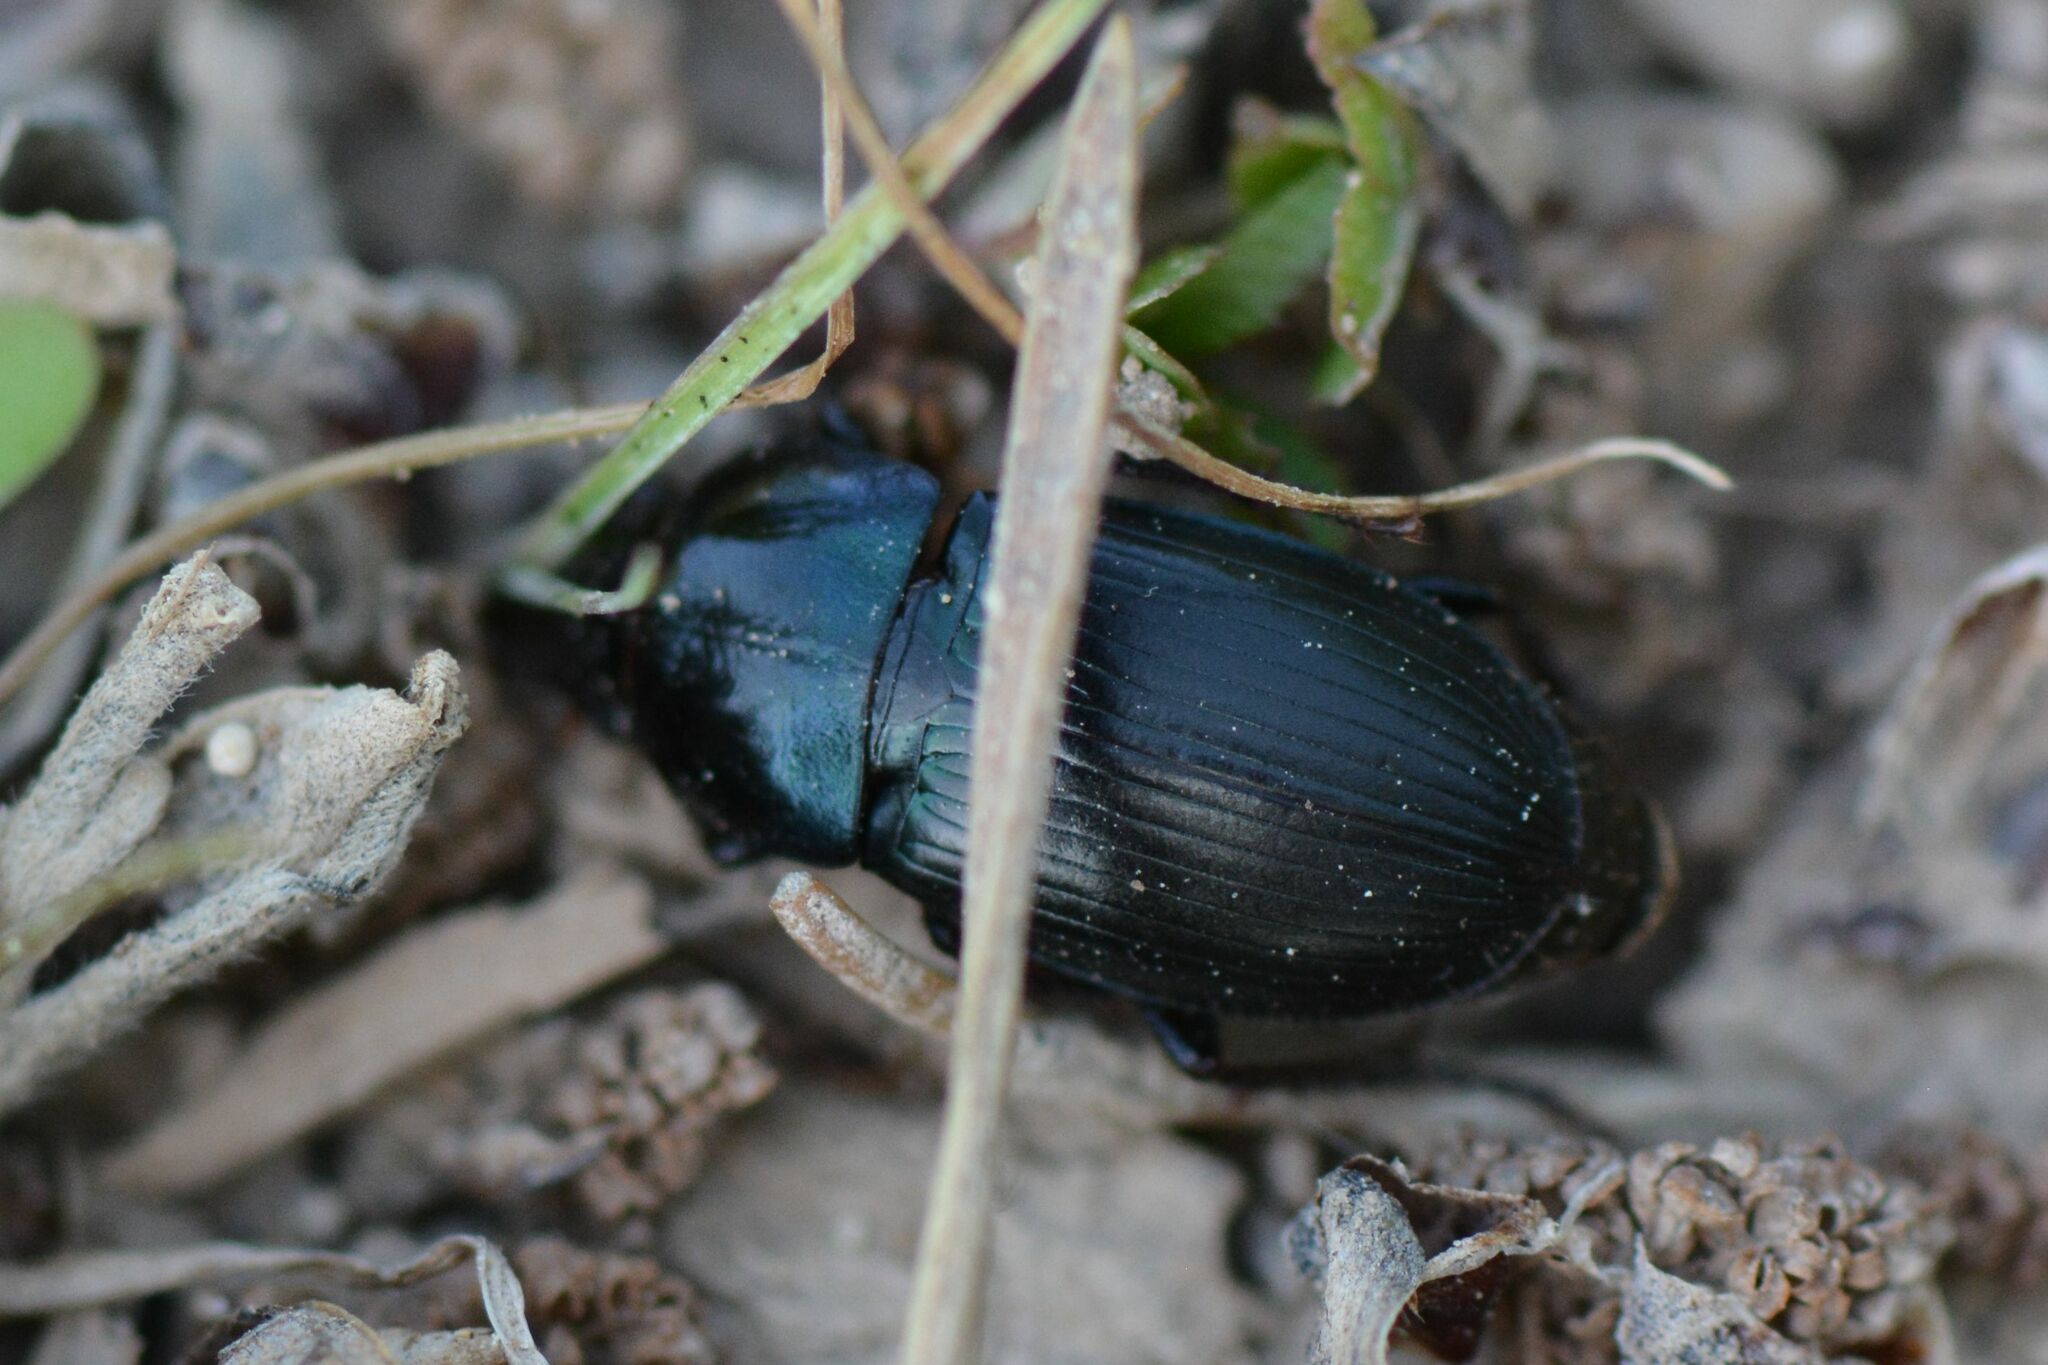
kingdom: Animalia
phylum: Arthropoda
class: Insecta
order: Coleoptera
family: Carabidae
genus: Harpalus
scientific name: Harpalus dimidiatus
